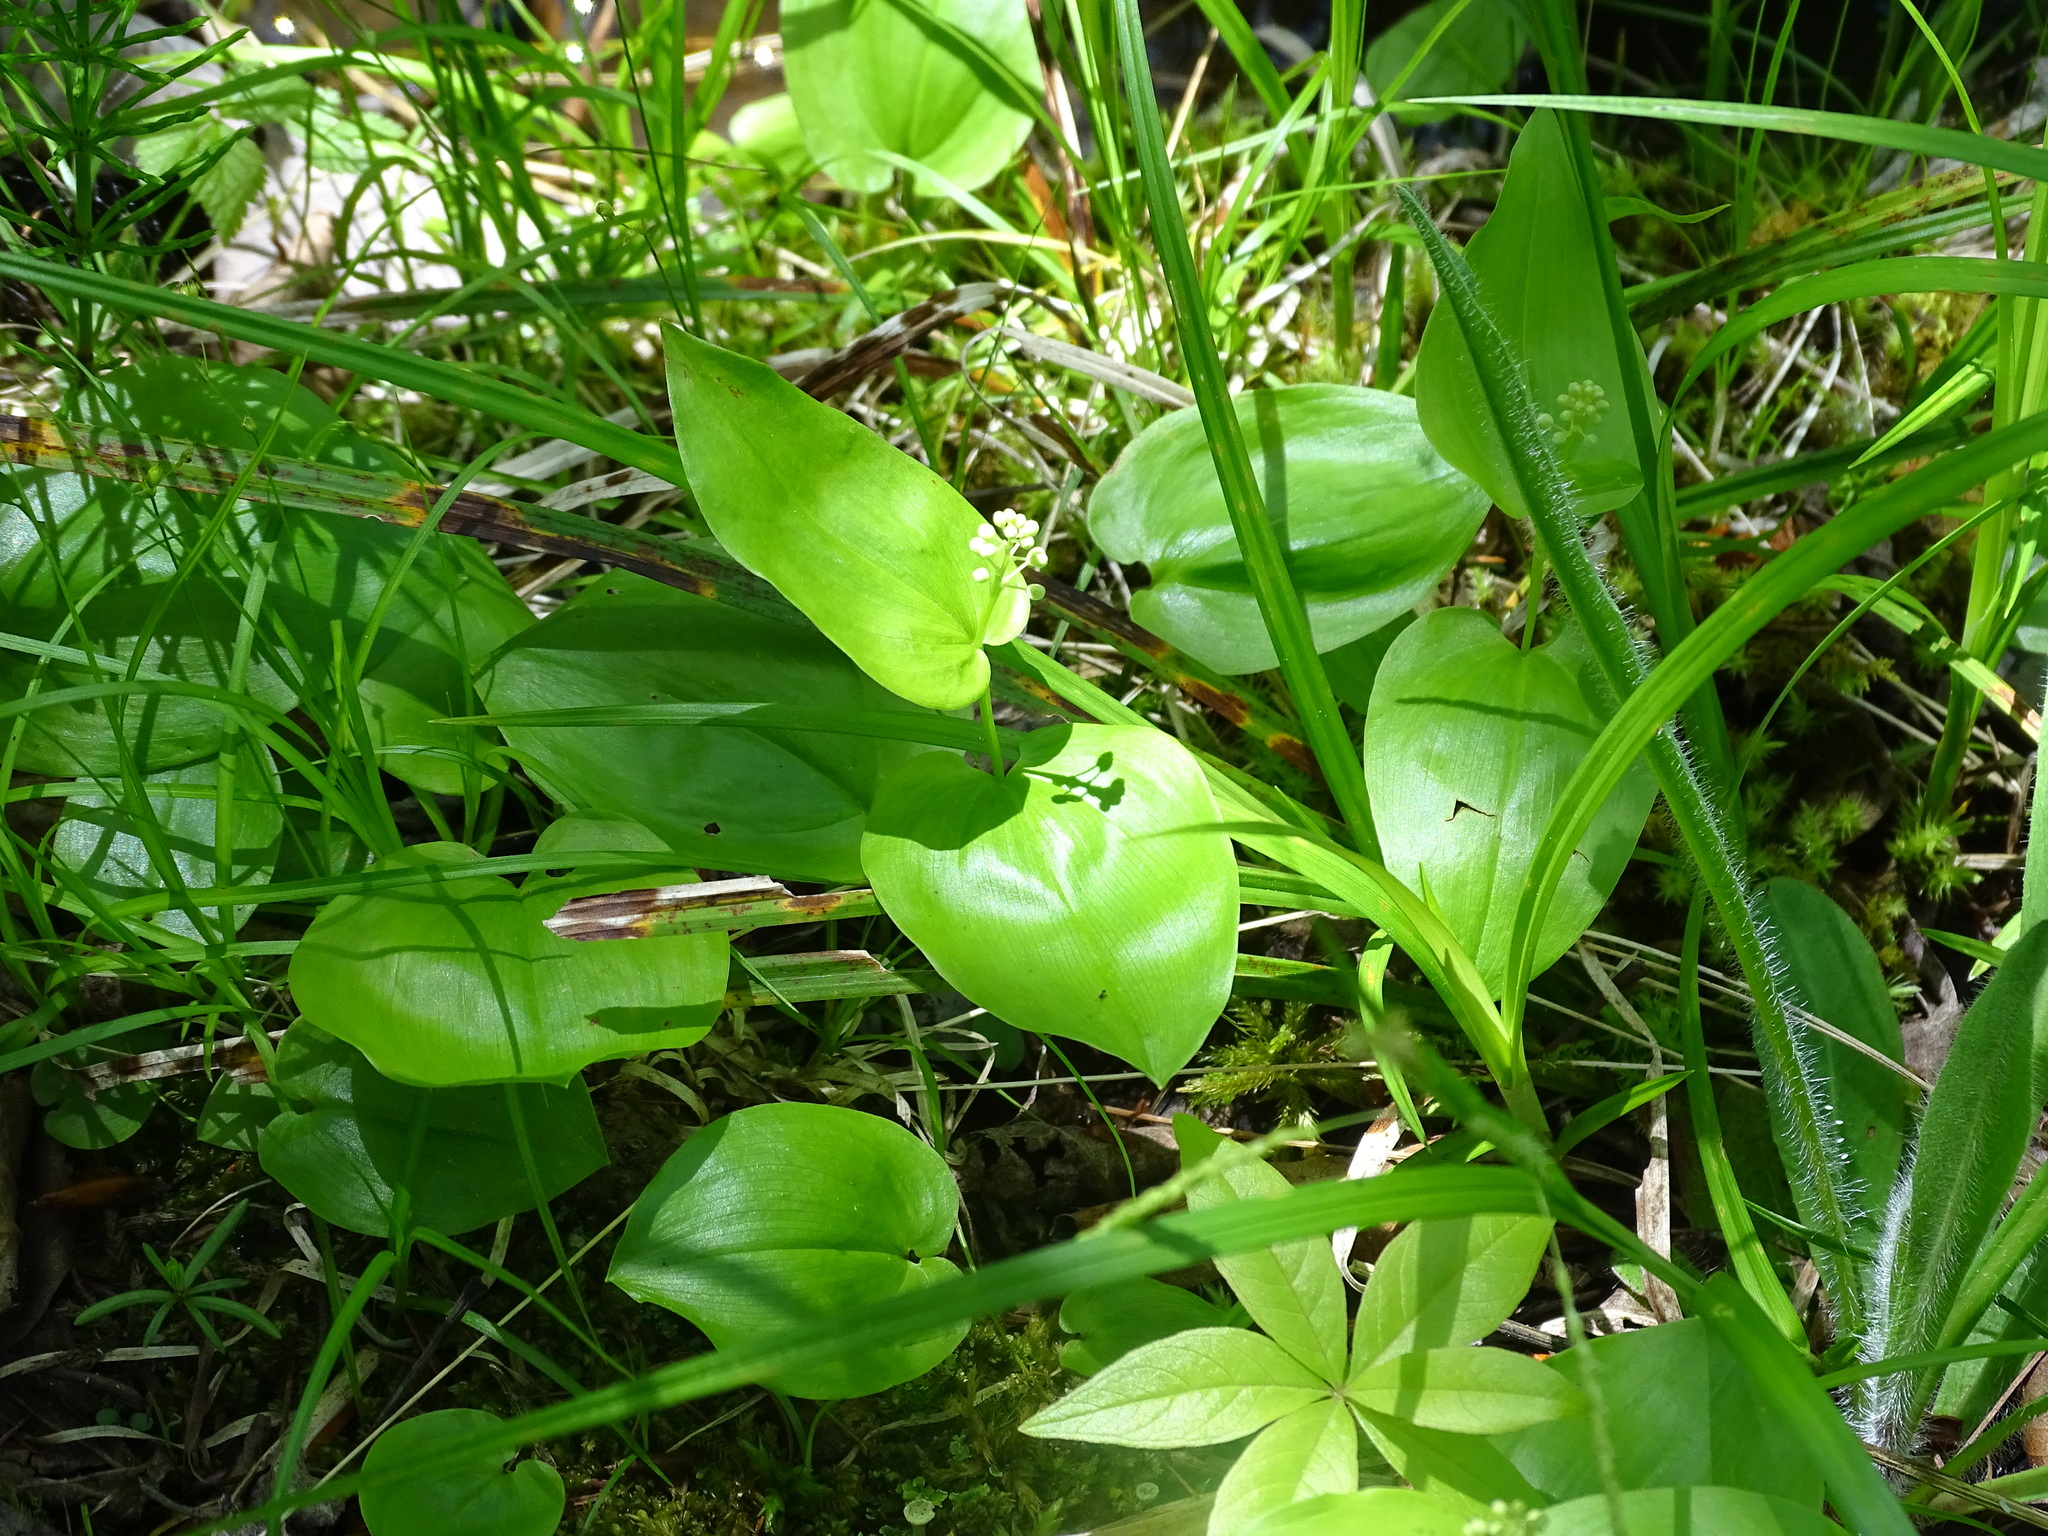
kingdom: Plantae
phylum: Tracheophyta
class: Liliopsida
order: Asparagales
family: Asparagaceae
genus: Maianthemum
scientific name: Maianthemum canadense
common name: False lily-of-the-valley
